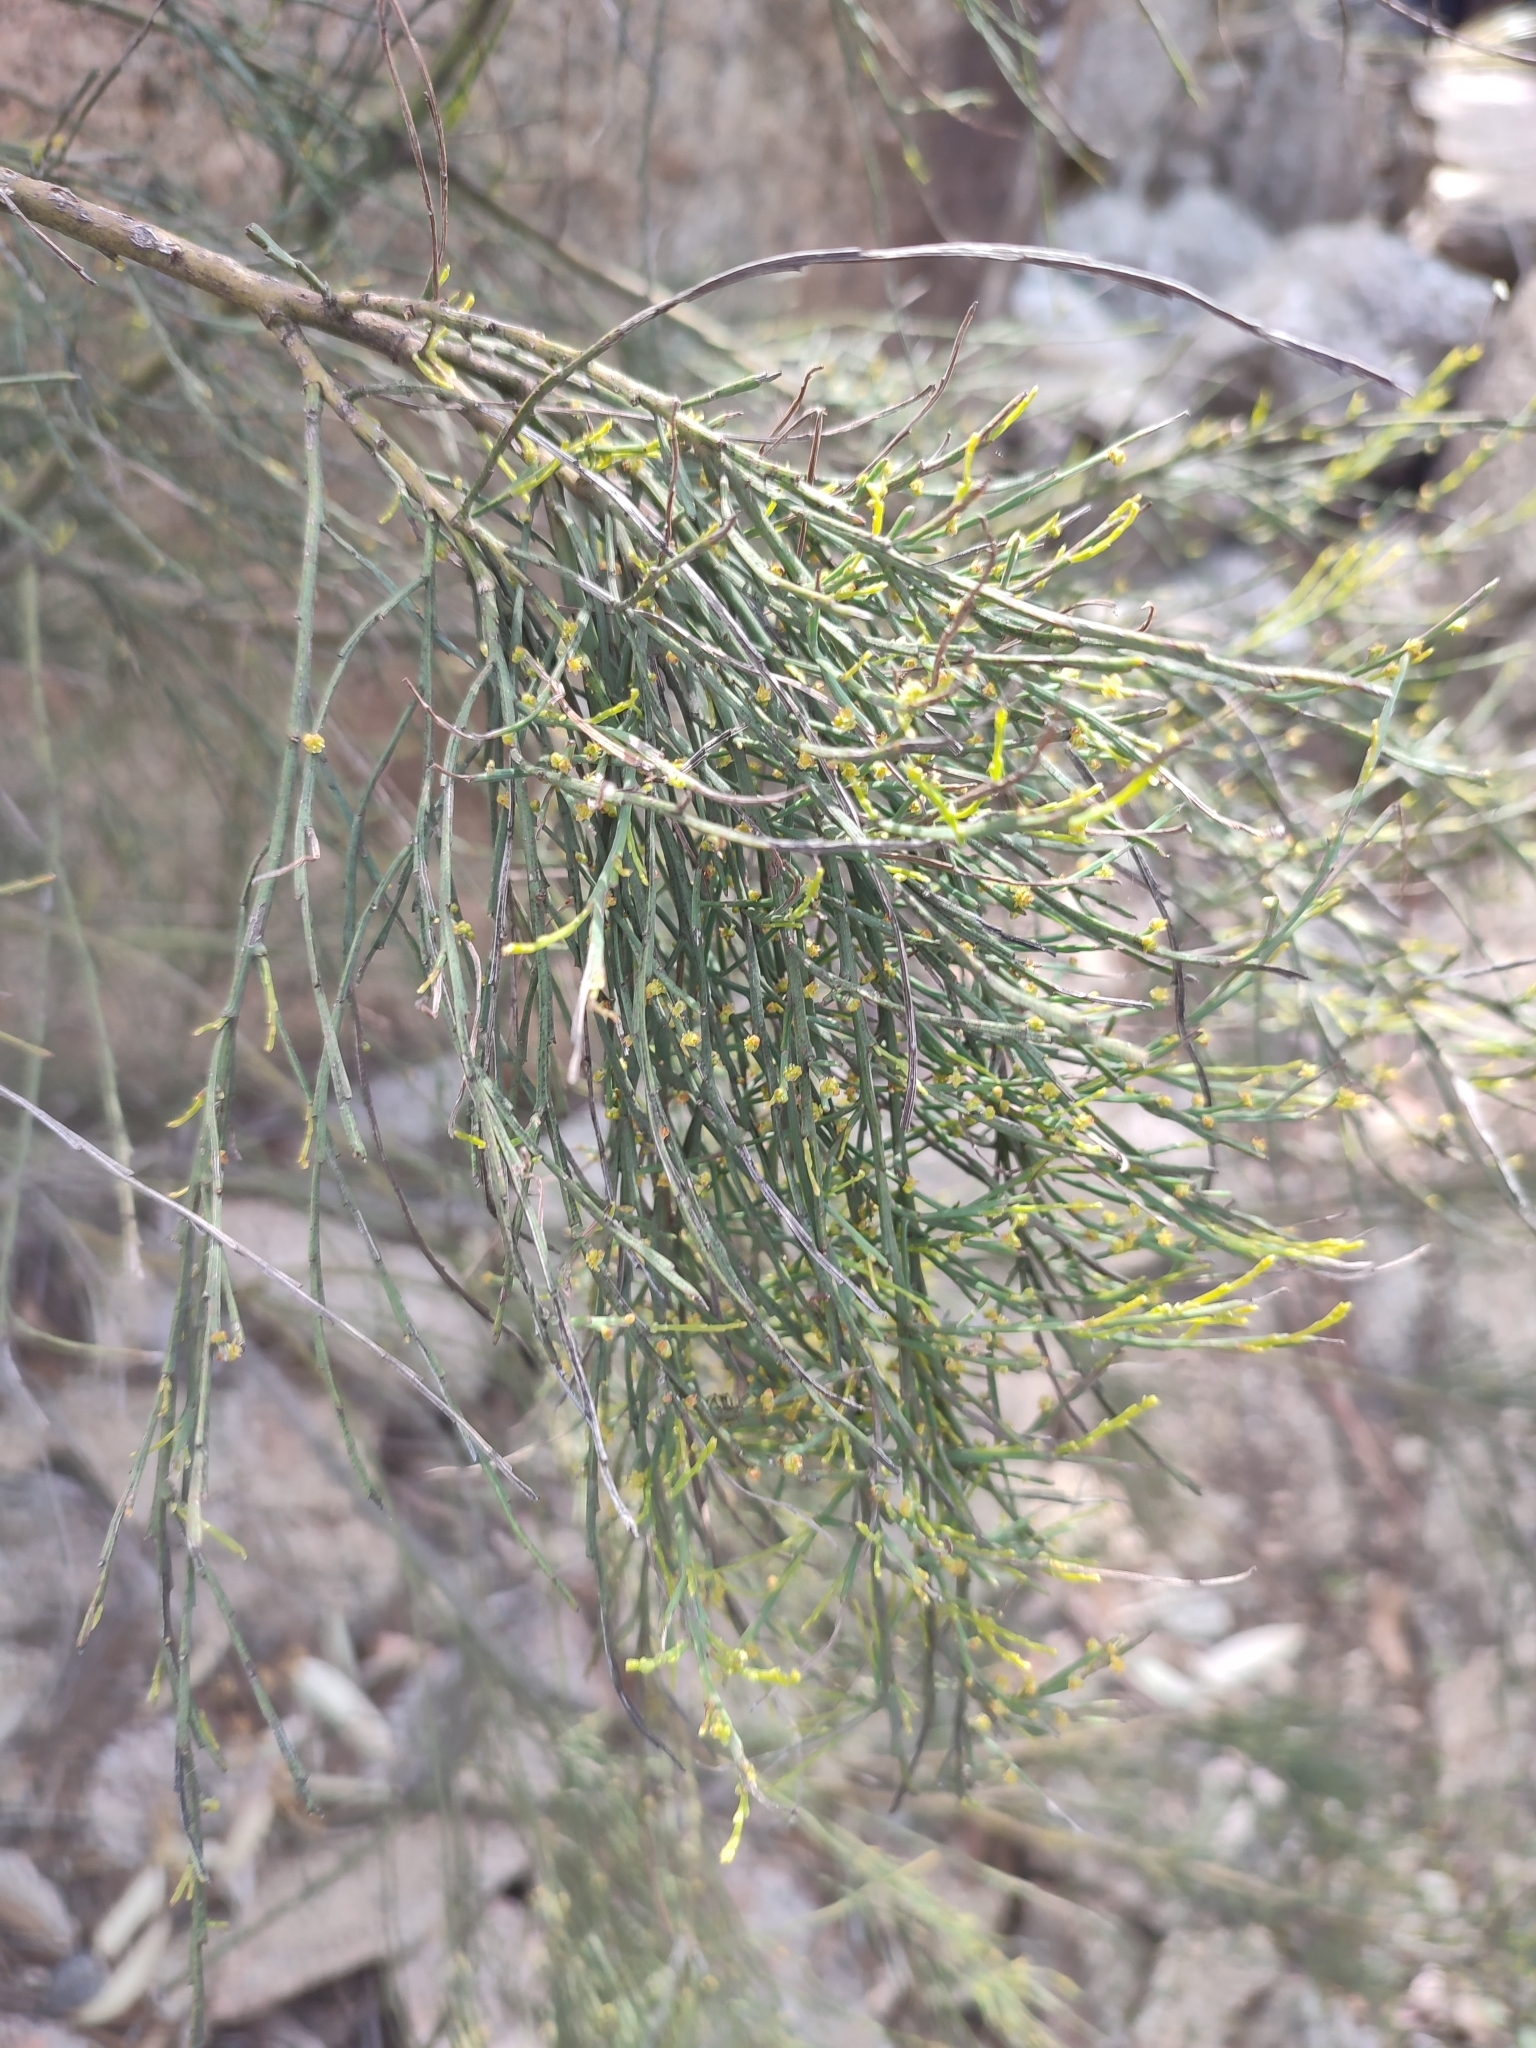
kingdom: Plantae
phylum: Tracheophyta
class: Magnoliopsida
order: Santalales
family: Santalaceae
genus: Exocarpos
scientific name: Exocarpos strictus
